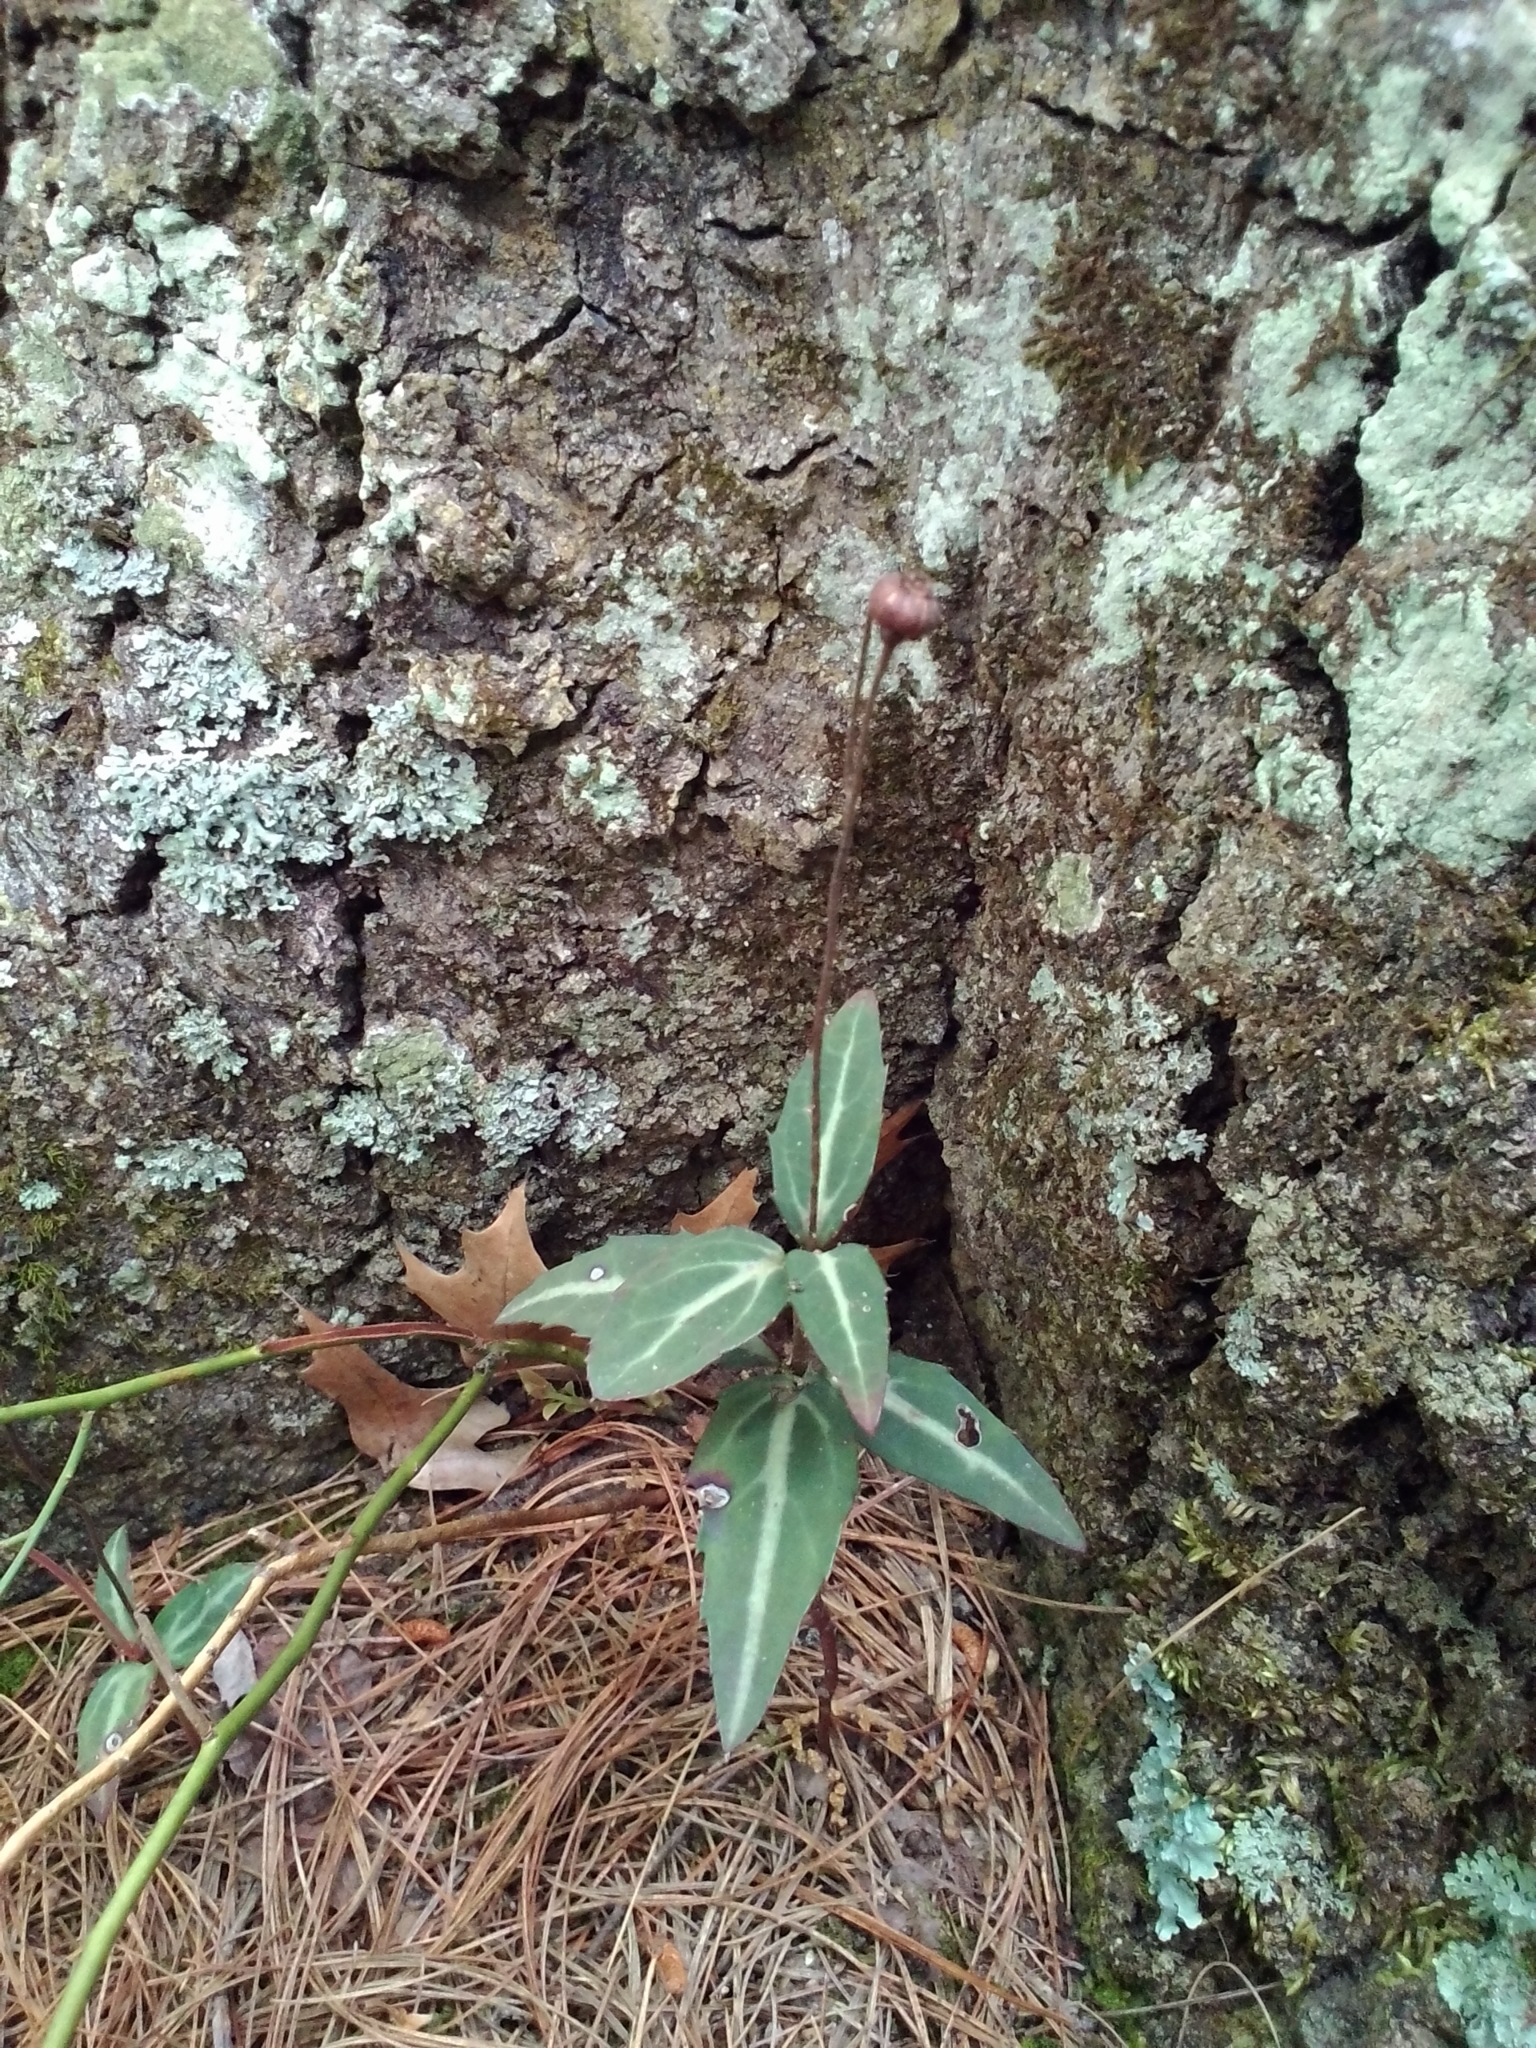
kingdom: Plantae
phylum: Tracheophyta
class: Magnoliopsida
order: Ericales
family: Ericaceae
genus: Chimaphila
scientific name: Chimaphila maculata
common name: Spotted pipsissewa
